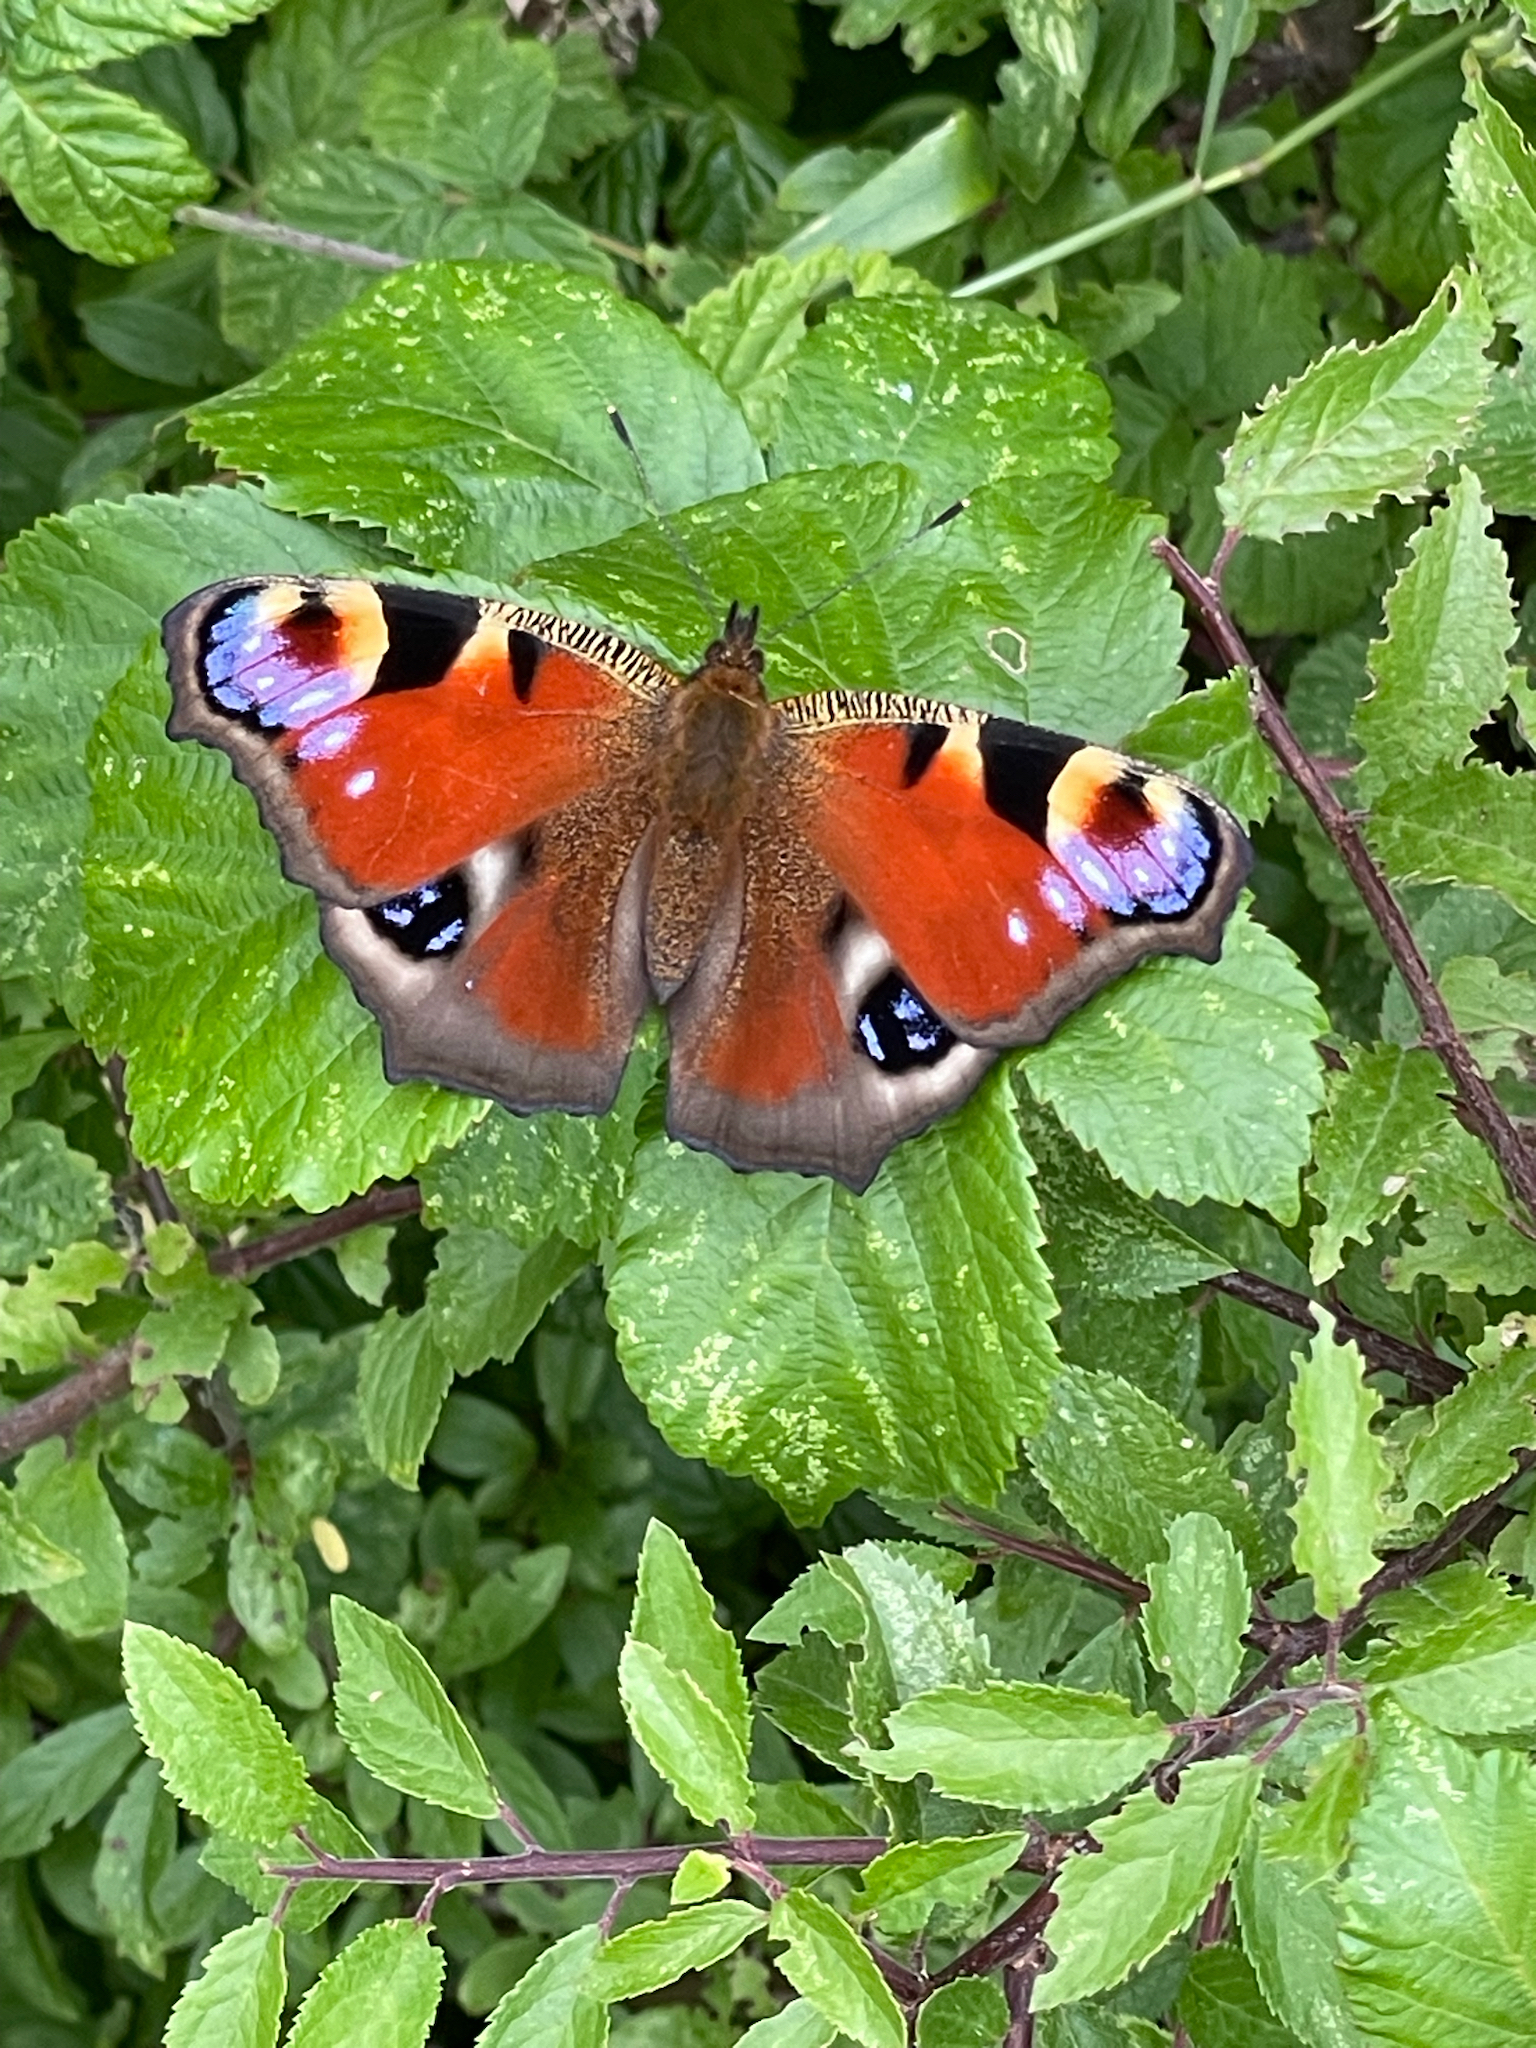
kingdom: Animalia
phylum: Arthropoda
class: Insecta
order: Lepidoptera
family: Nymphalidae
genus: Aglais
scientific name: Aglais io
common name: Peacock
